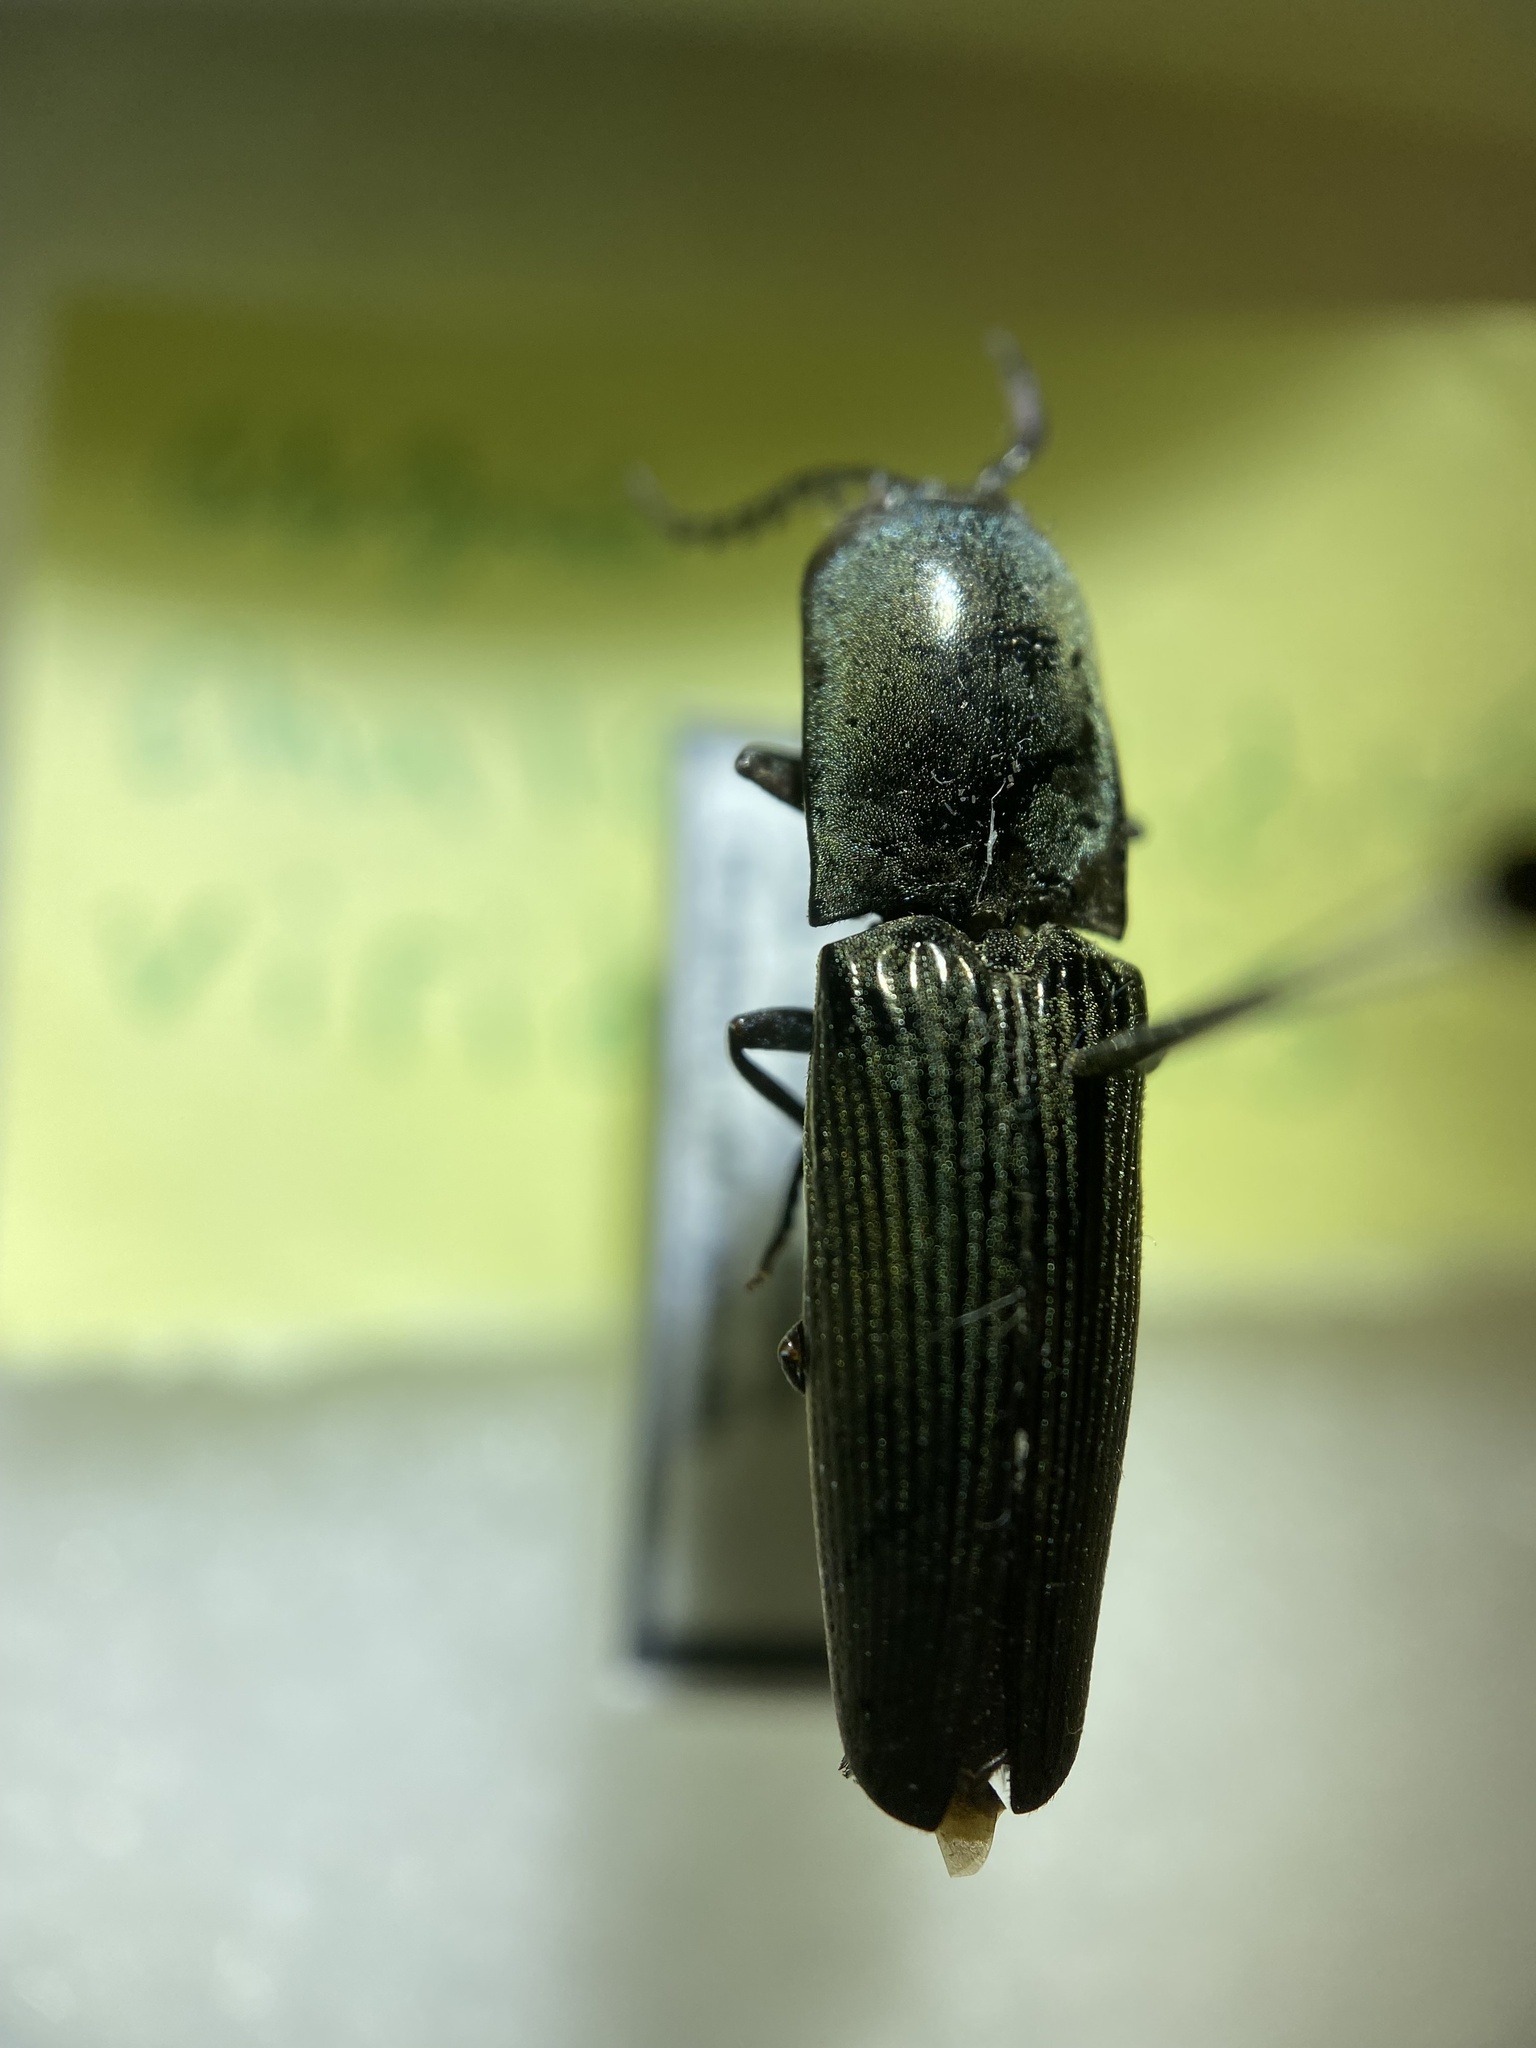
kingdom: Animalia
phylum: Arthropoda
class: Insecta
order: Coleoptera
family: Elateridae
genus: Chalcolepidius
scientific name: Chalcolepidius
